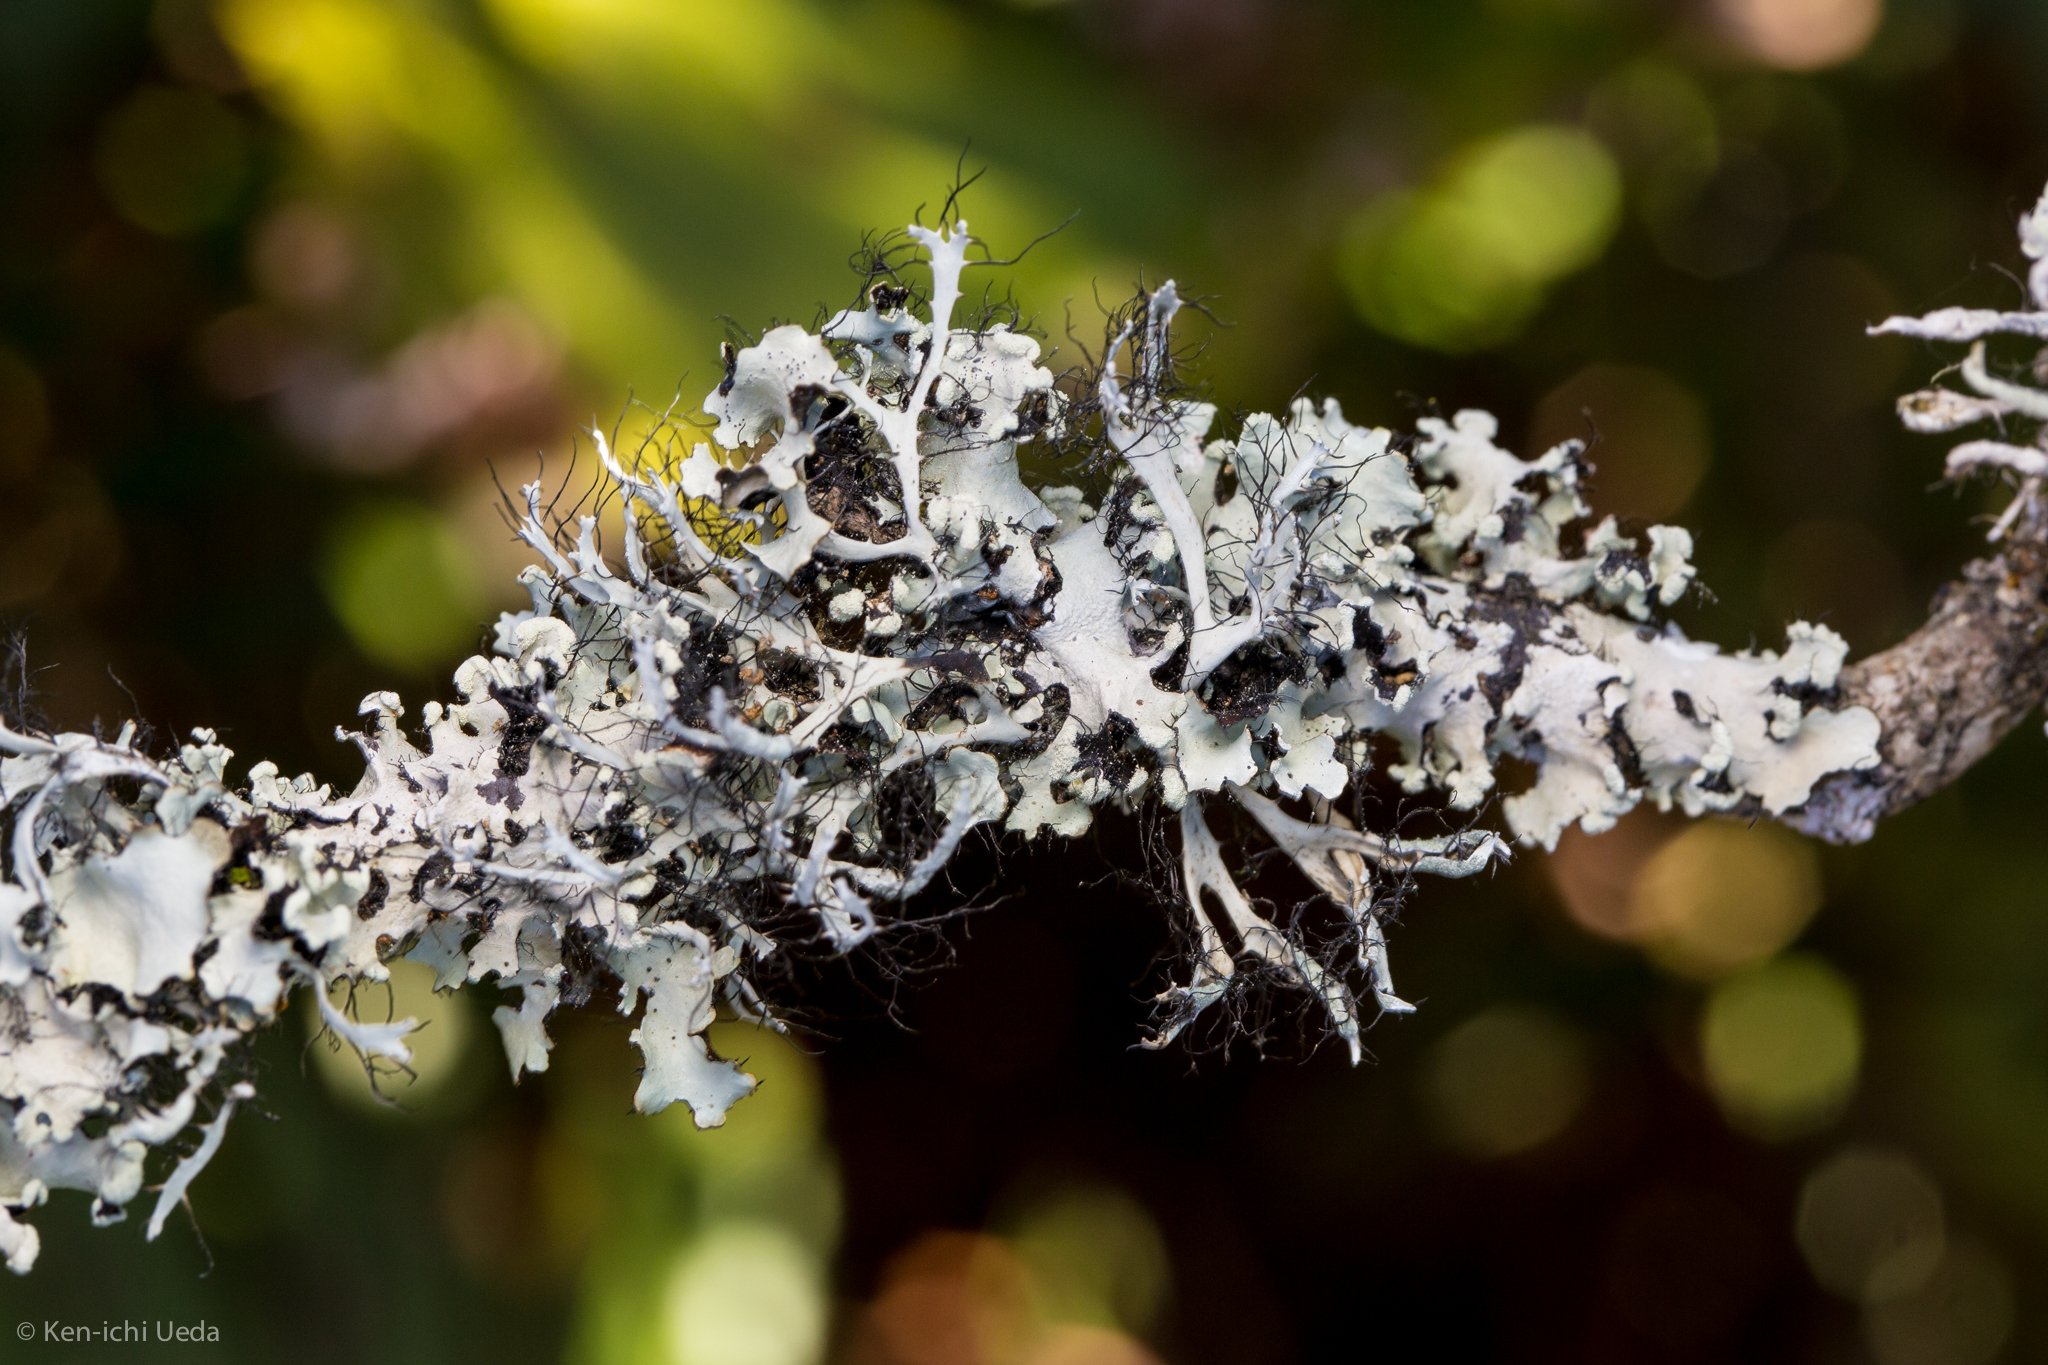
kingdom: Fungi
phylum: Ascomycota
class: Lecanoromycetes
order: Caliciales
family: Physciaceae
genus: Leucodermia
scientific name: Leucodermia leucomelos
